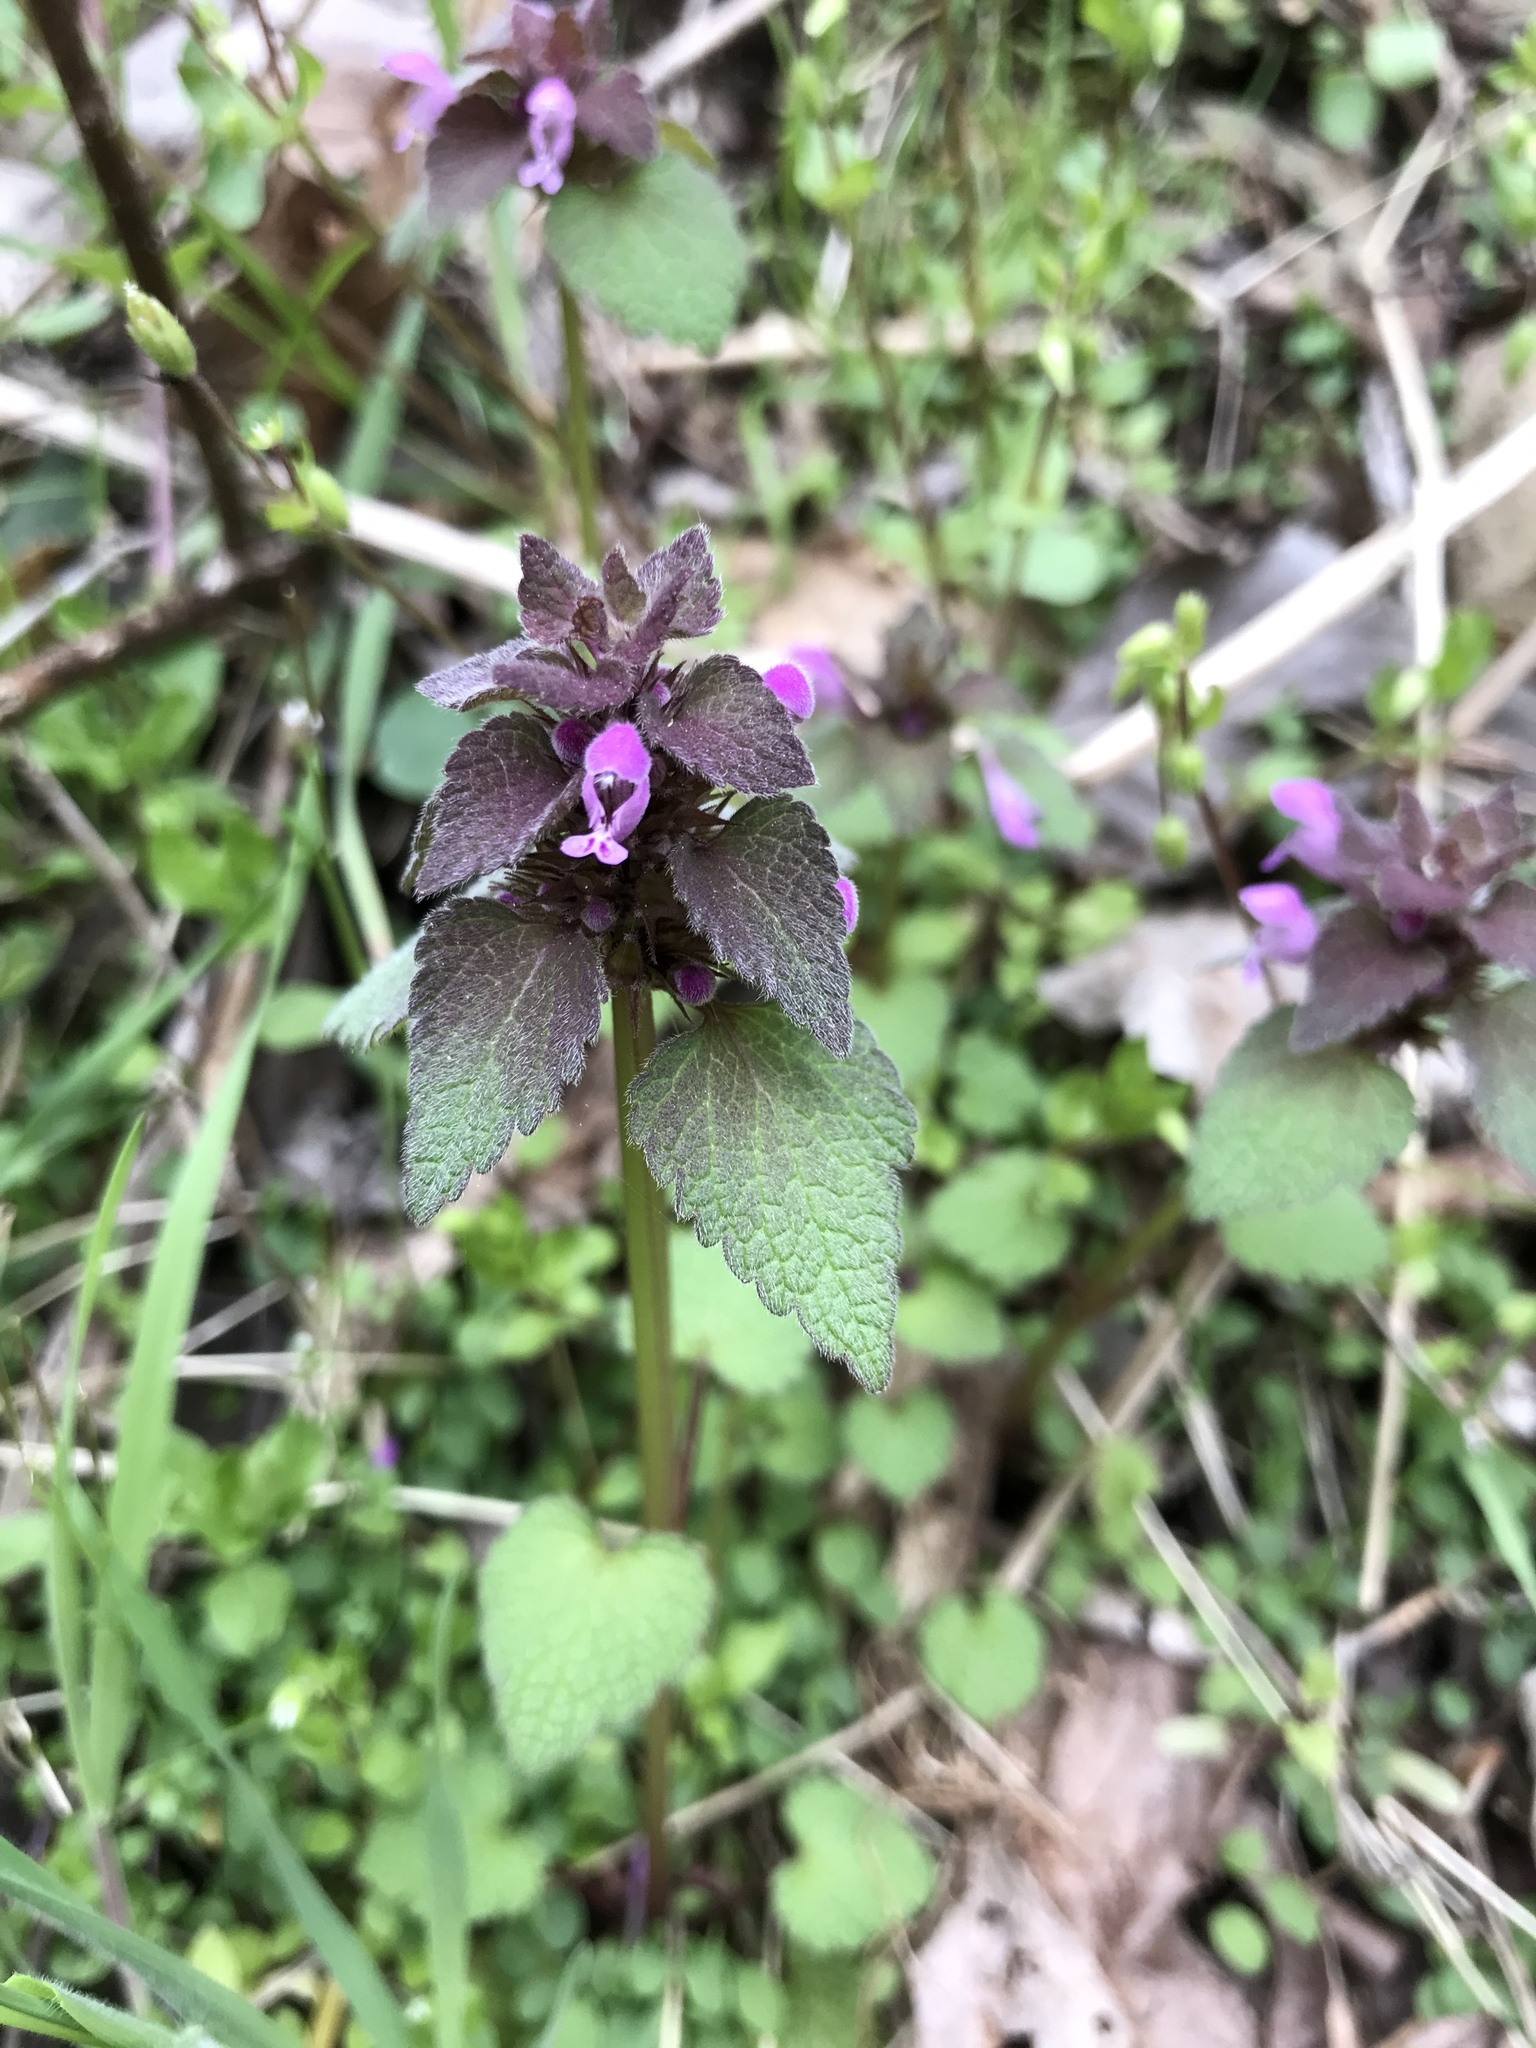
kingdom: Plantae
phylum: Tracheophyta
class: Magnoliopsida
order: Lamiales
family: Lamiaceae
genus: Lamium
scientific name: Lamium purpureum
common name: Red dead-nettle
